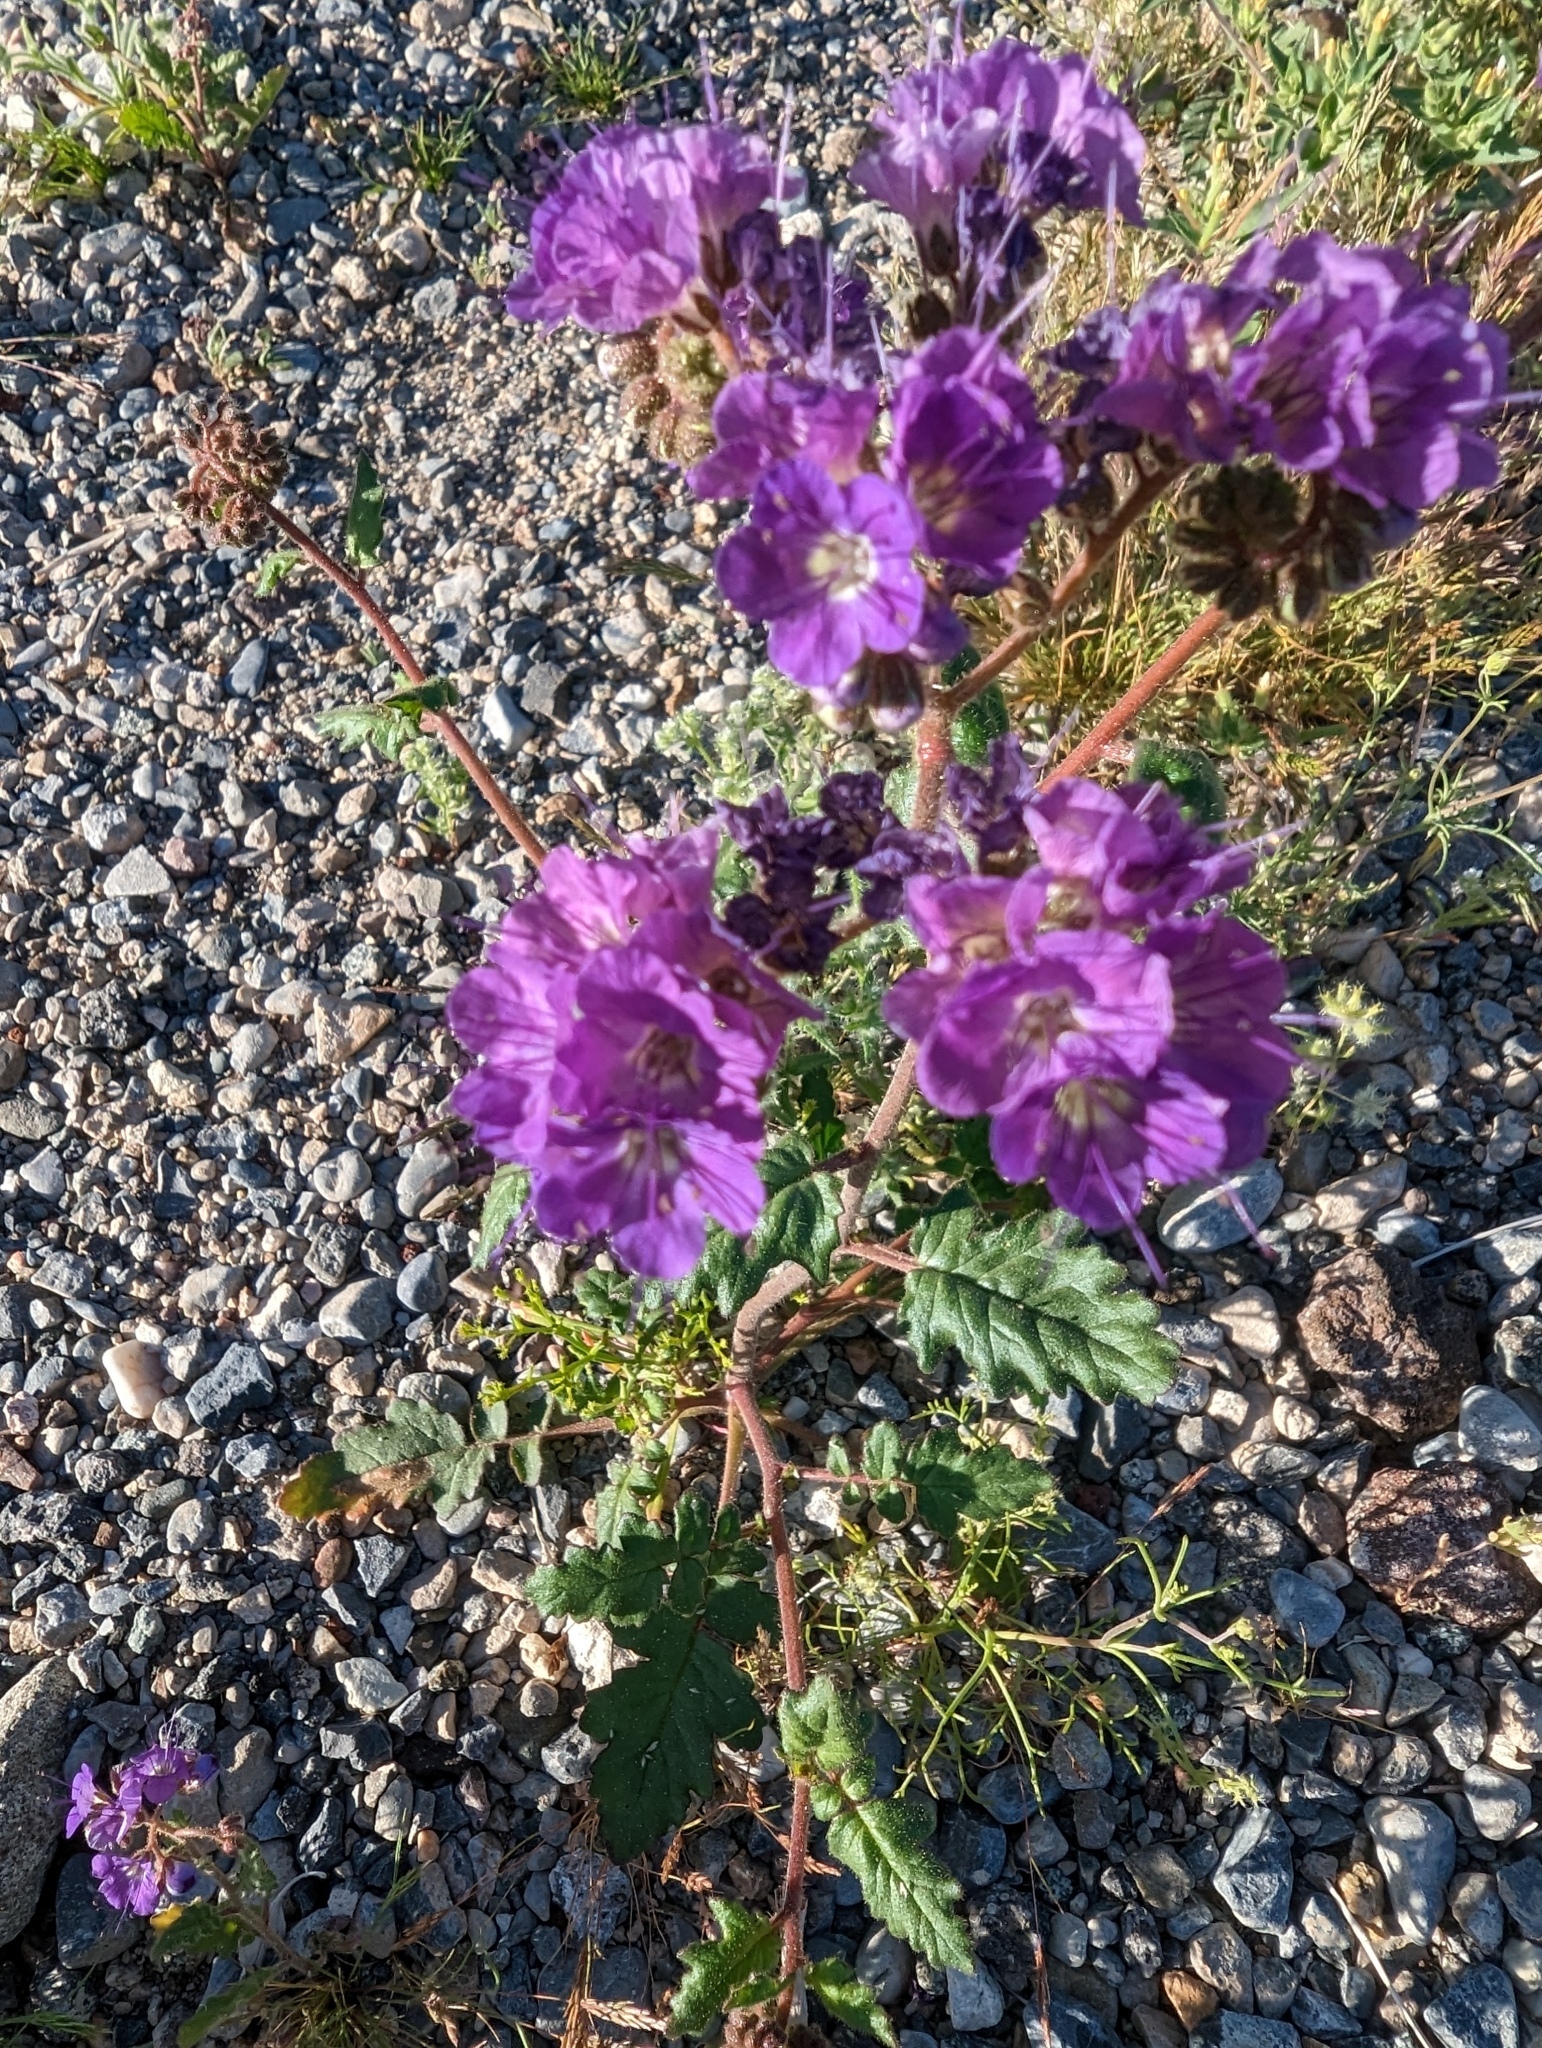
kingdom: Plantae
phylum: Tracheophyta
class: Magnoliopsida
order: Boraginales
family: Hydrophyllaceae
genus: Phacelia
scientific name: Phacelia crenulata
